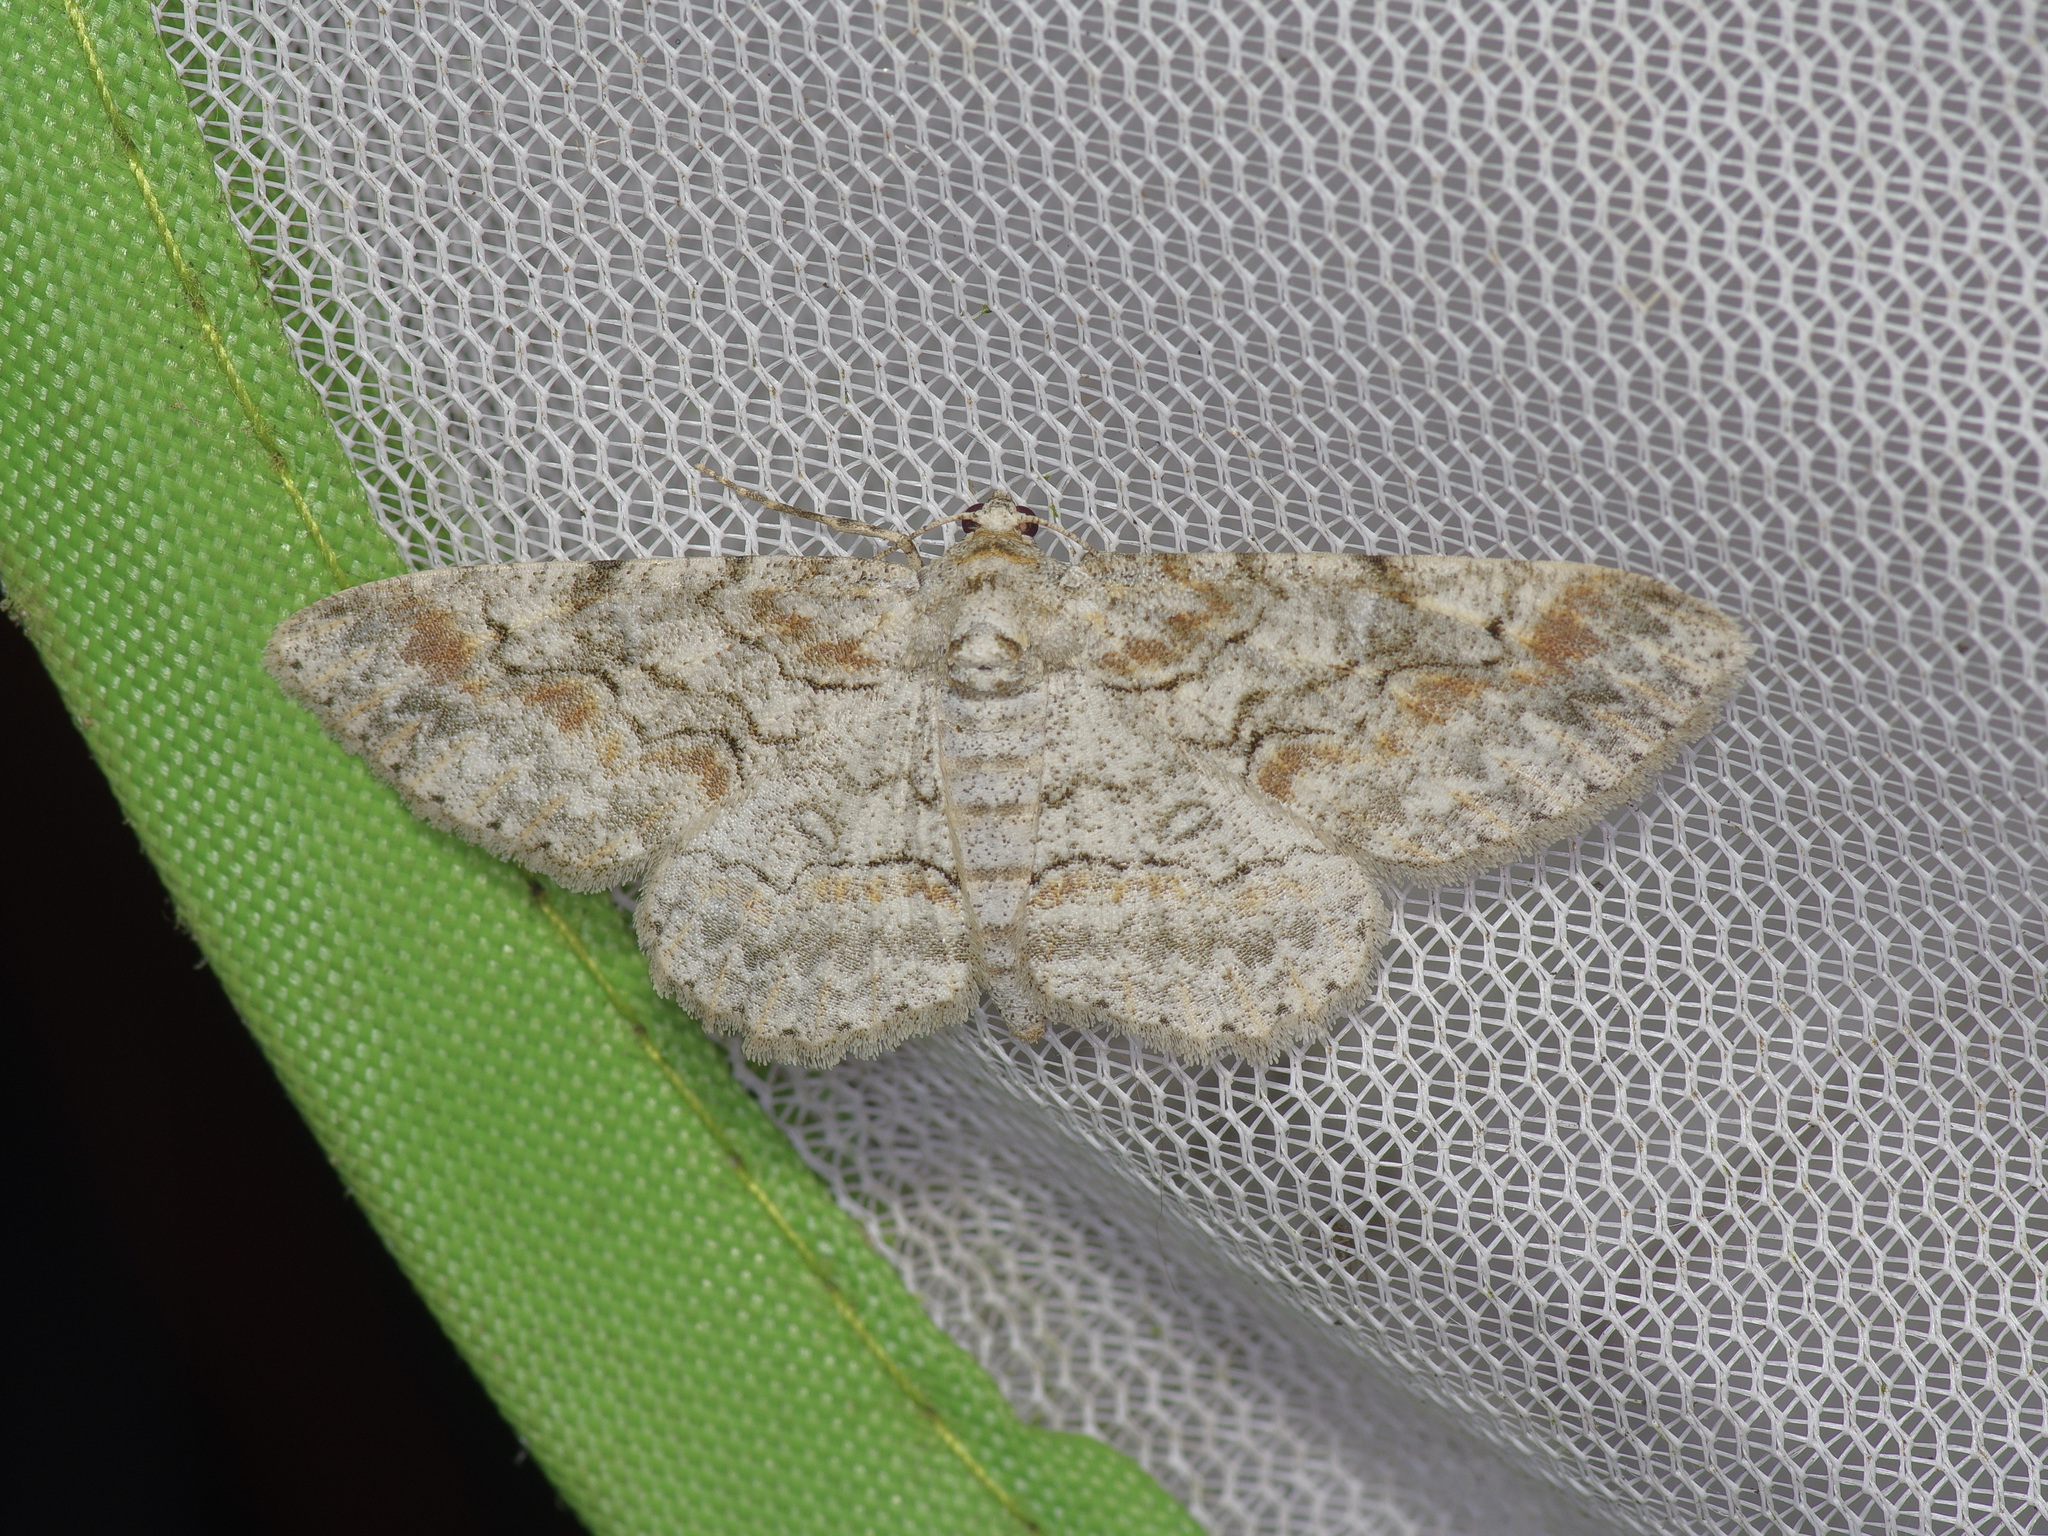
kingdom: Animalia
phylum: Arthropoda
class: Insecta
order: Lepidoptera
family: Geometridae
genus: Iridopsis
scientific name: Iridopsis defectaria
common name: Brown-shaded gray
